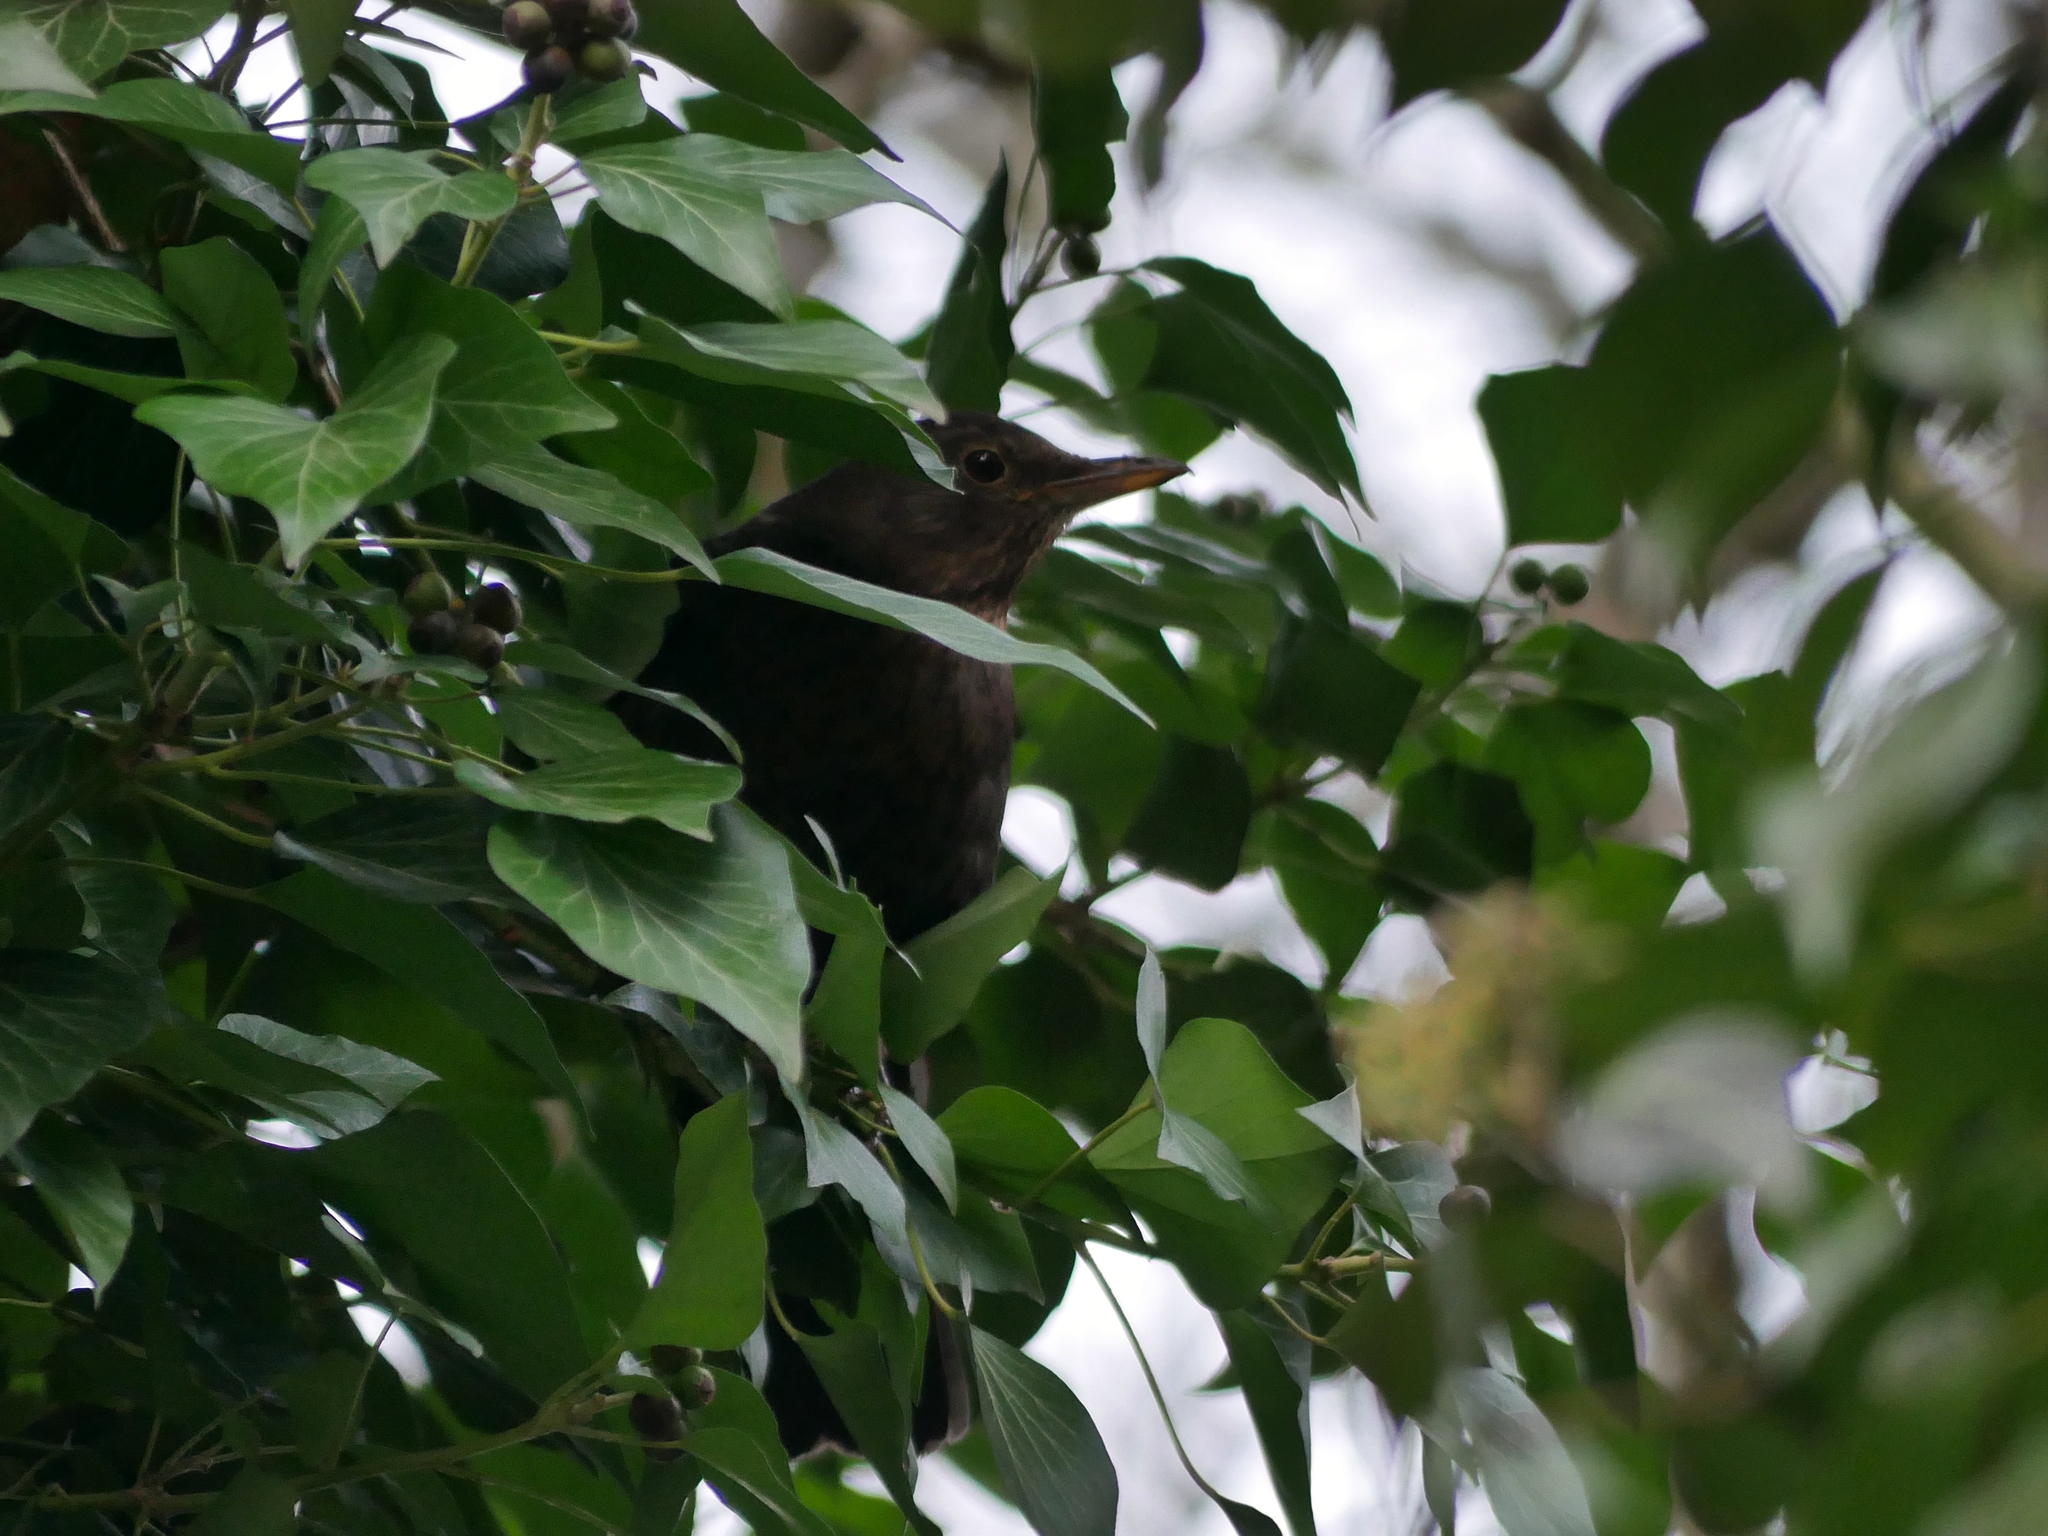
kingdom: Animalia
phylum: Chordata
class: Aves
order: Passeriformes
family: Turdidae
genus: Turdus
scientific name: Turdus merula
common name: Common blackbird
